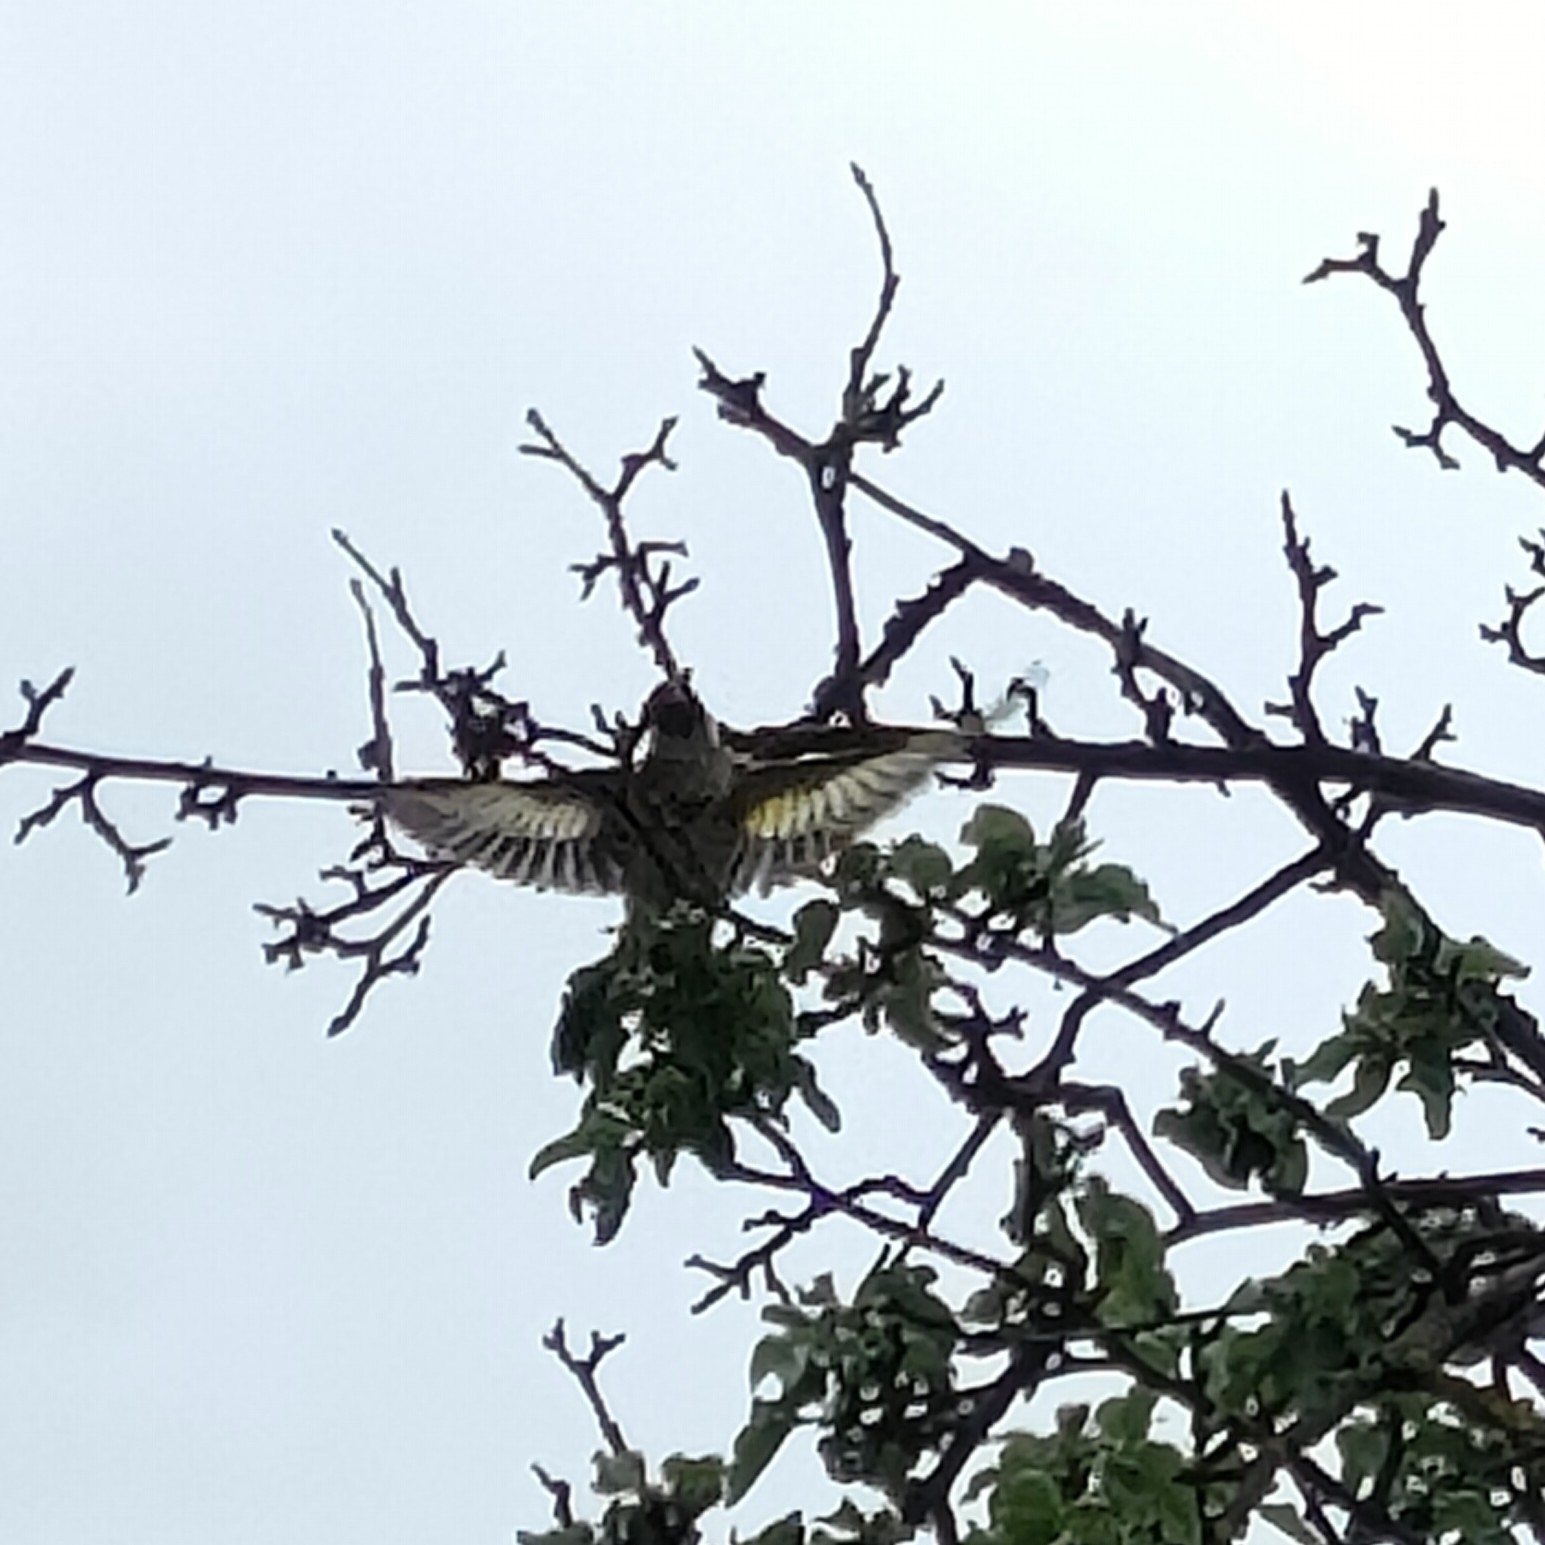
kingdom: Animalia
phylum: Chordata
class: Aves
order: Passeriformes
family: Fringillidae
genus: Carduelis
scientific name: Carduelis carduelis
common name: European goldfinch
